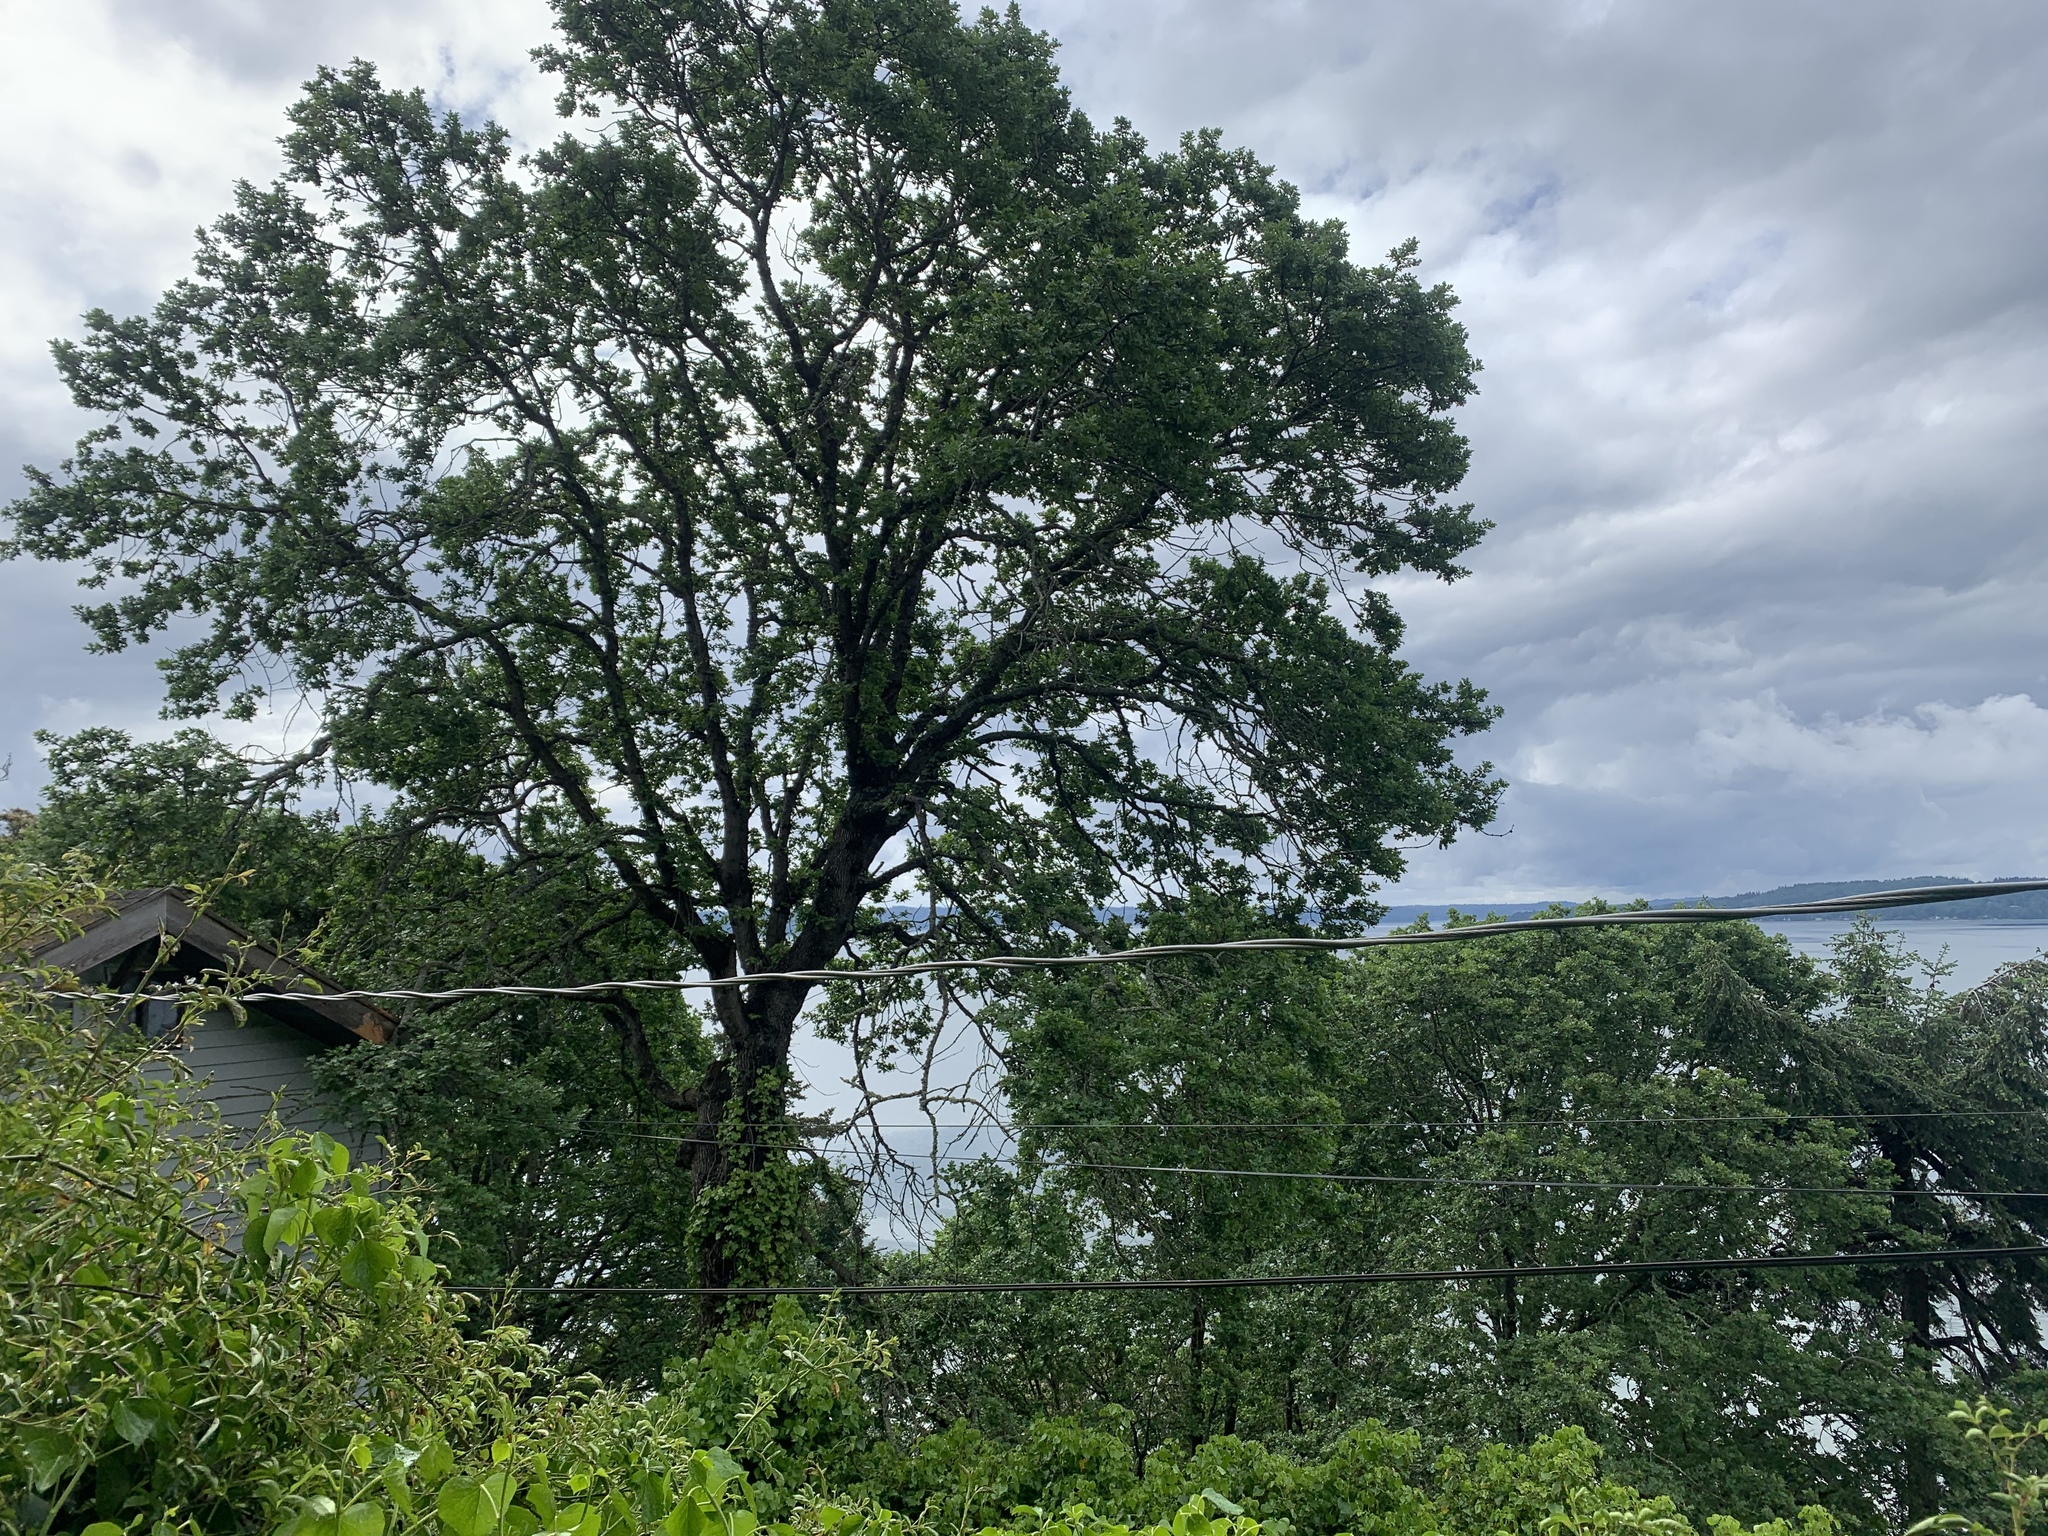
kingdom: Plantae
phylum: Tracheophyta
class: Magnoliopsida
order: Fagales
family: Fagaceae
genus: Quercus
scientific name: Quercus garryana
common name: Garry oak
